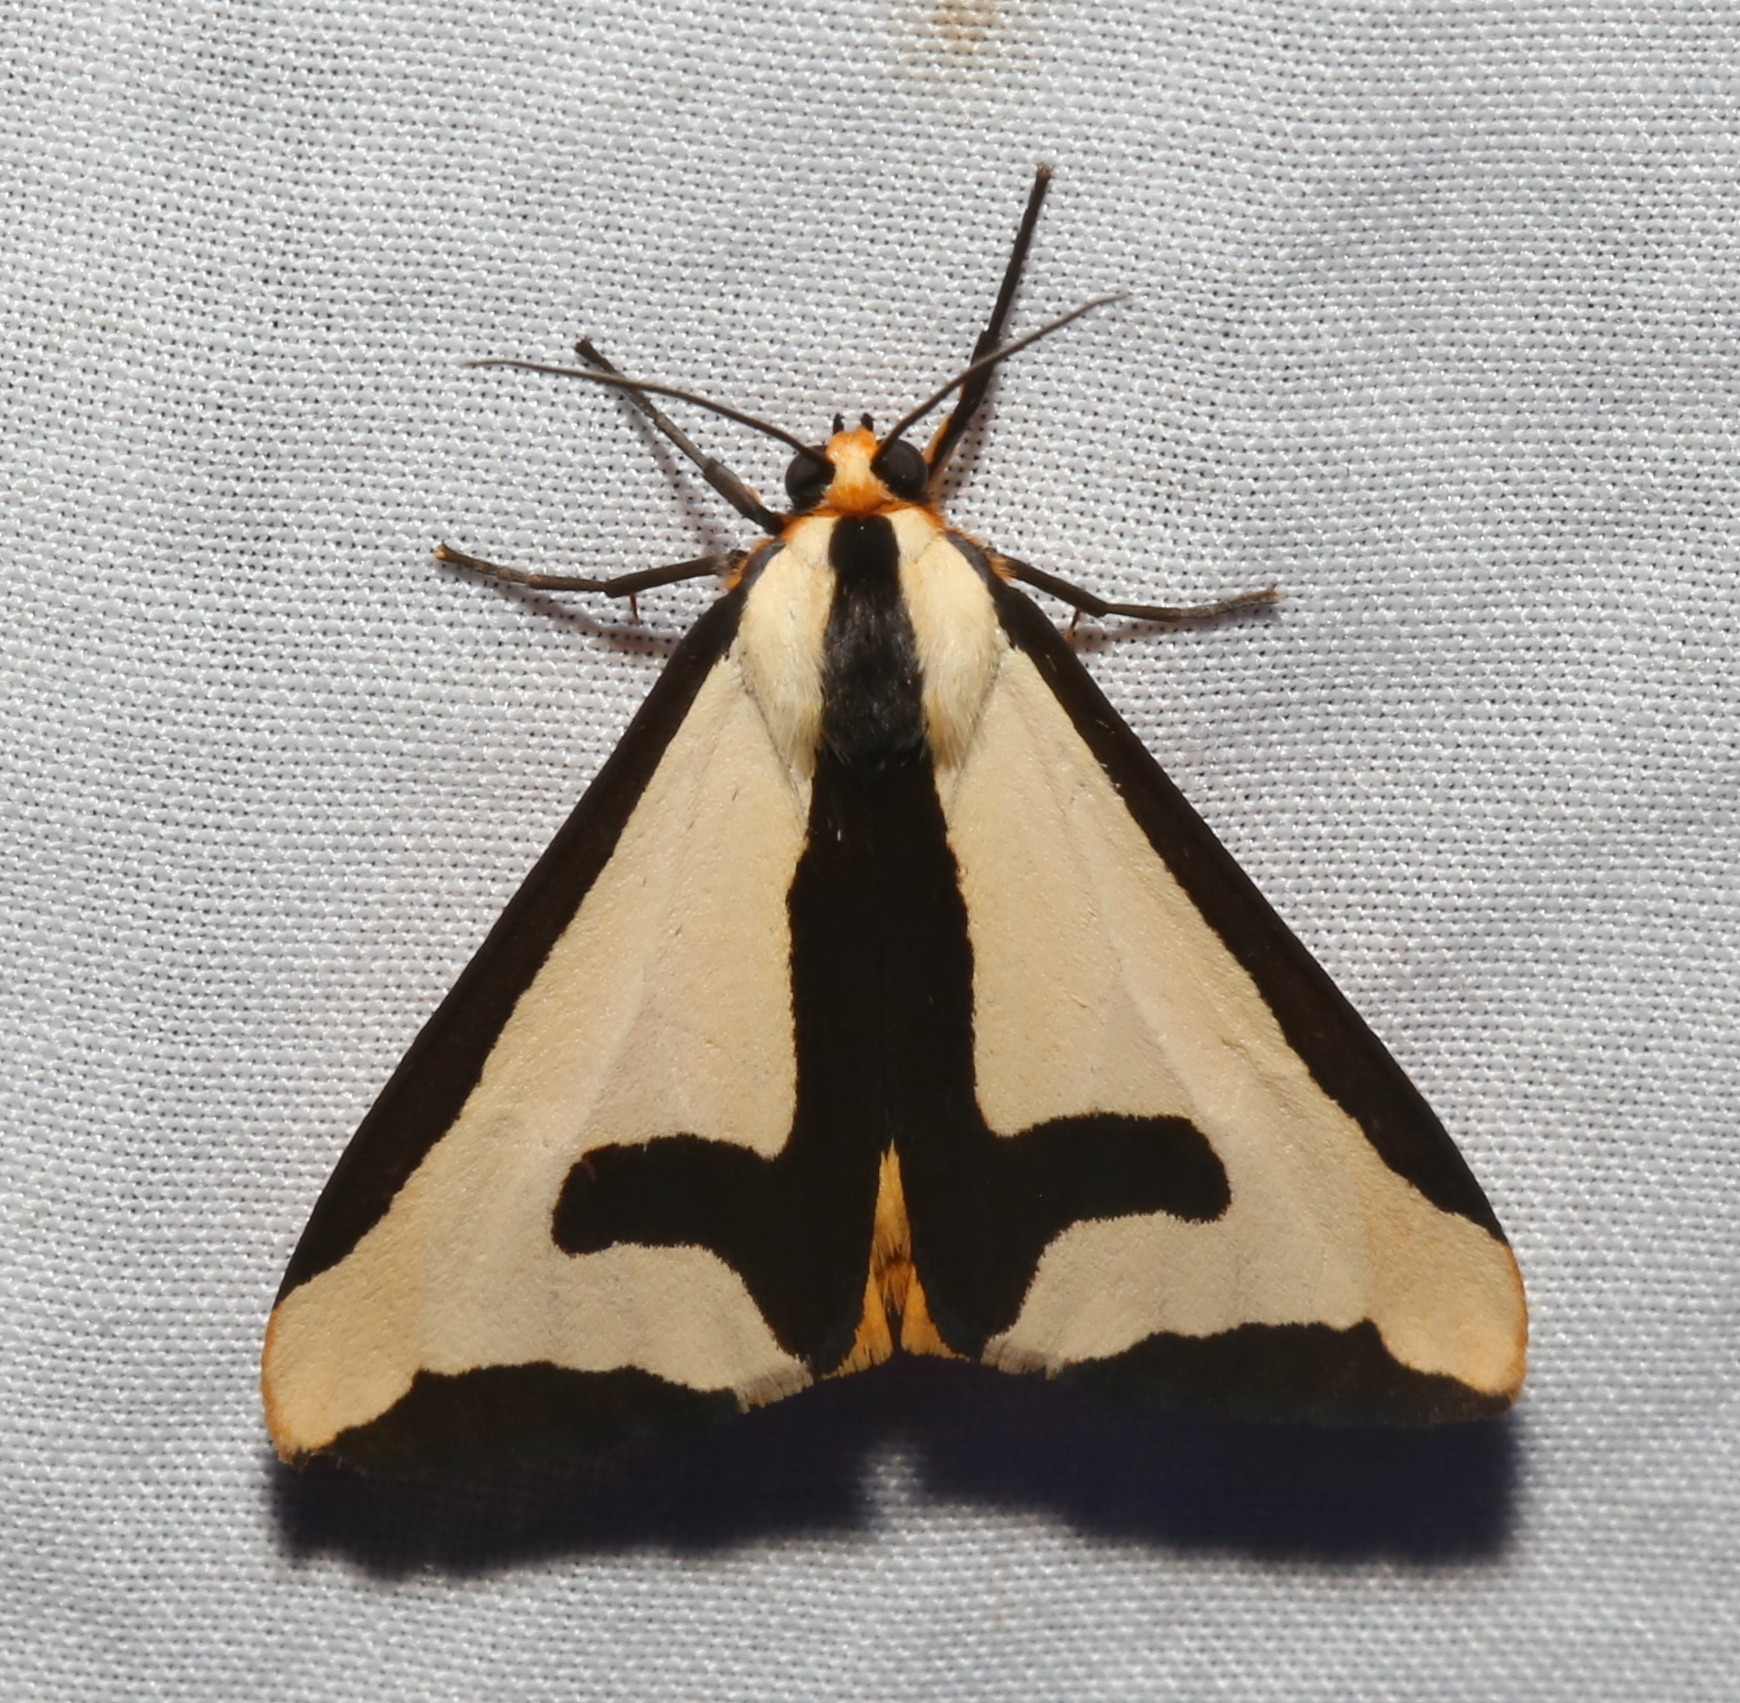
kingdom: Animalia
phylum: Arthropoda
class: Insecta
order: Lepidoptera
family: Erebidae
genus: Haploa
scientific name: Haploa clymene
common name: Clymene moth
